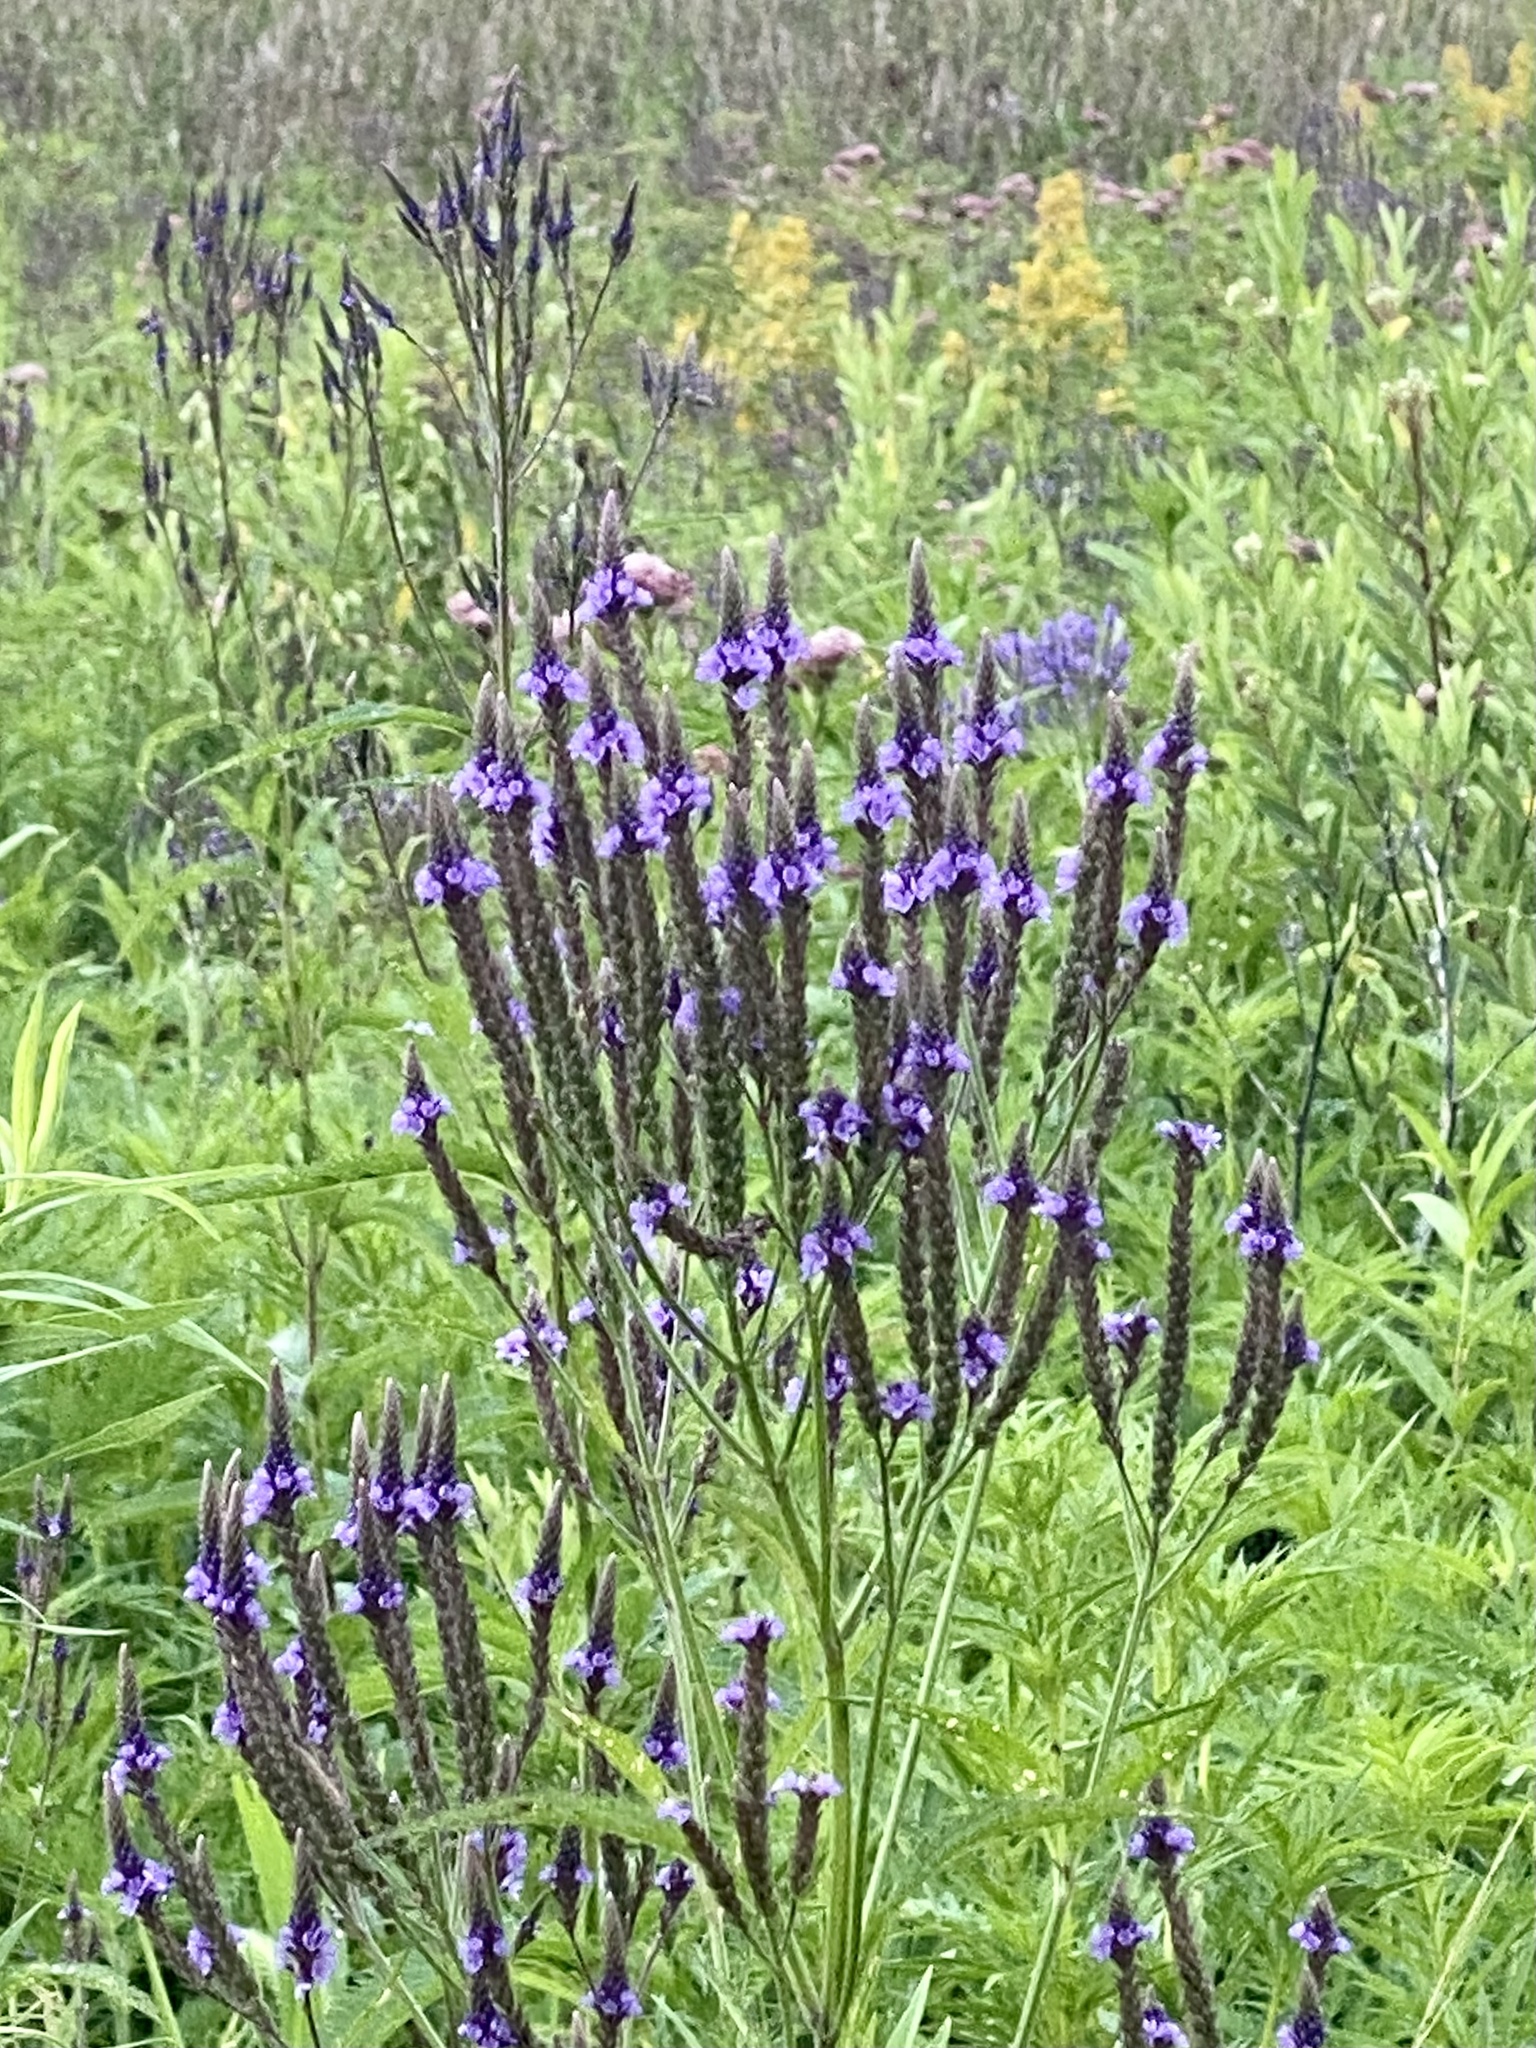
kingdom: Plantae
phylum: Tracheophyta
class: Magnoliopsida
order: Lamiales
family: Verbenaceae
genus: Verbena
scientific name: Verbena hastata
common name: American blue vervain
